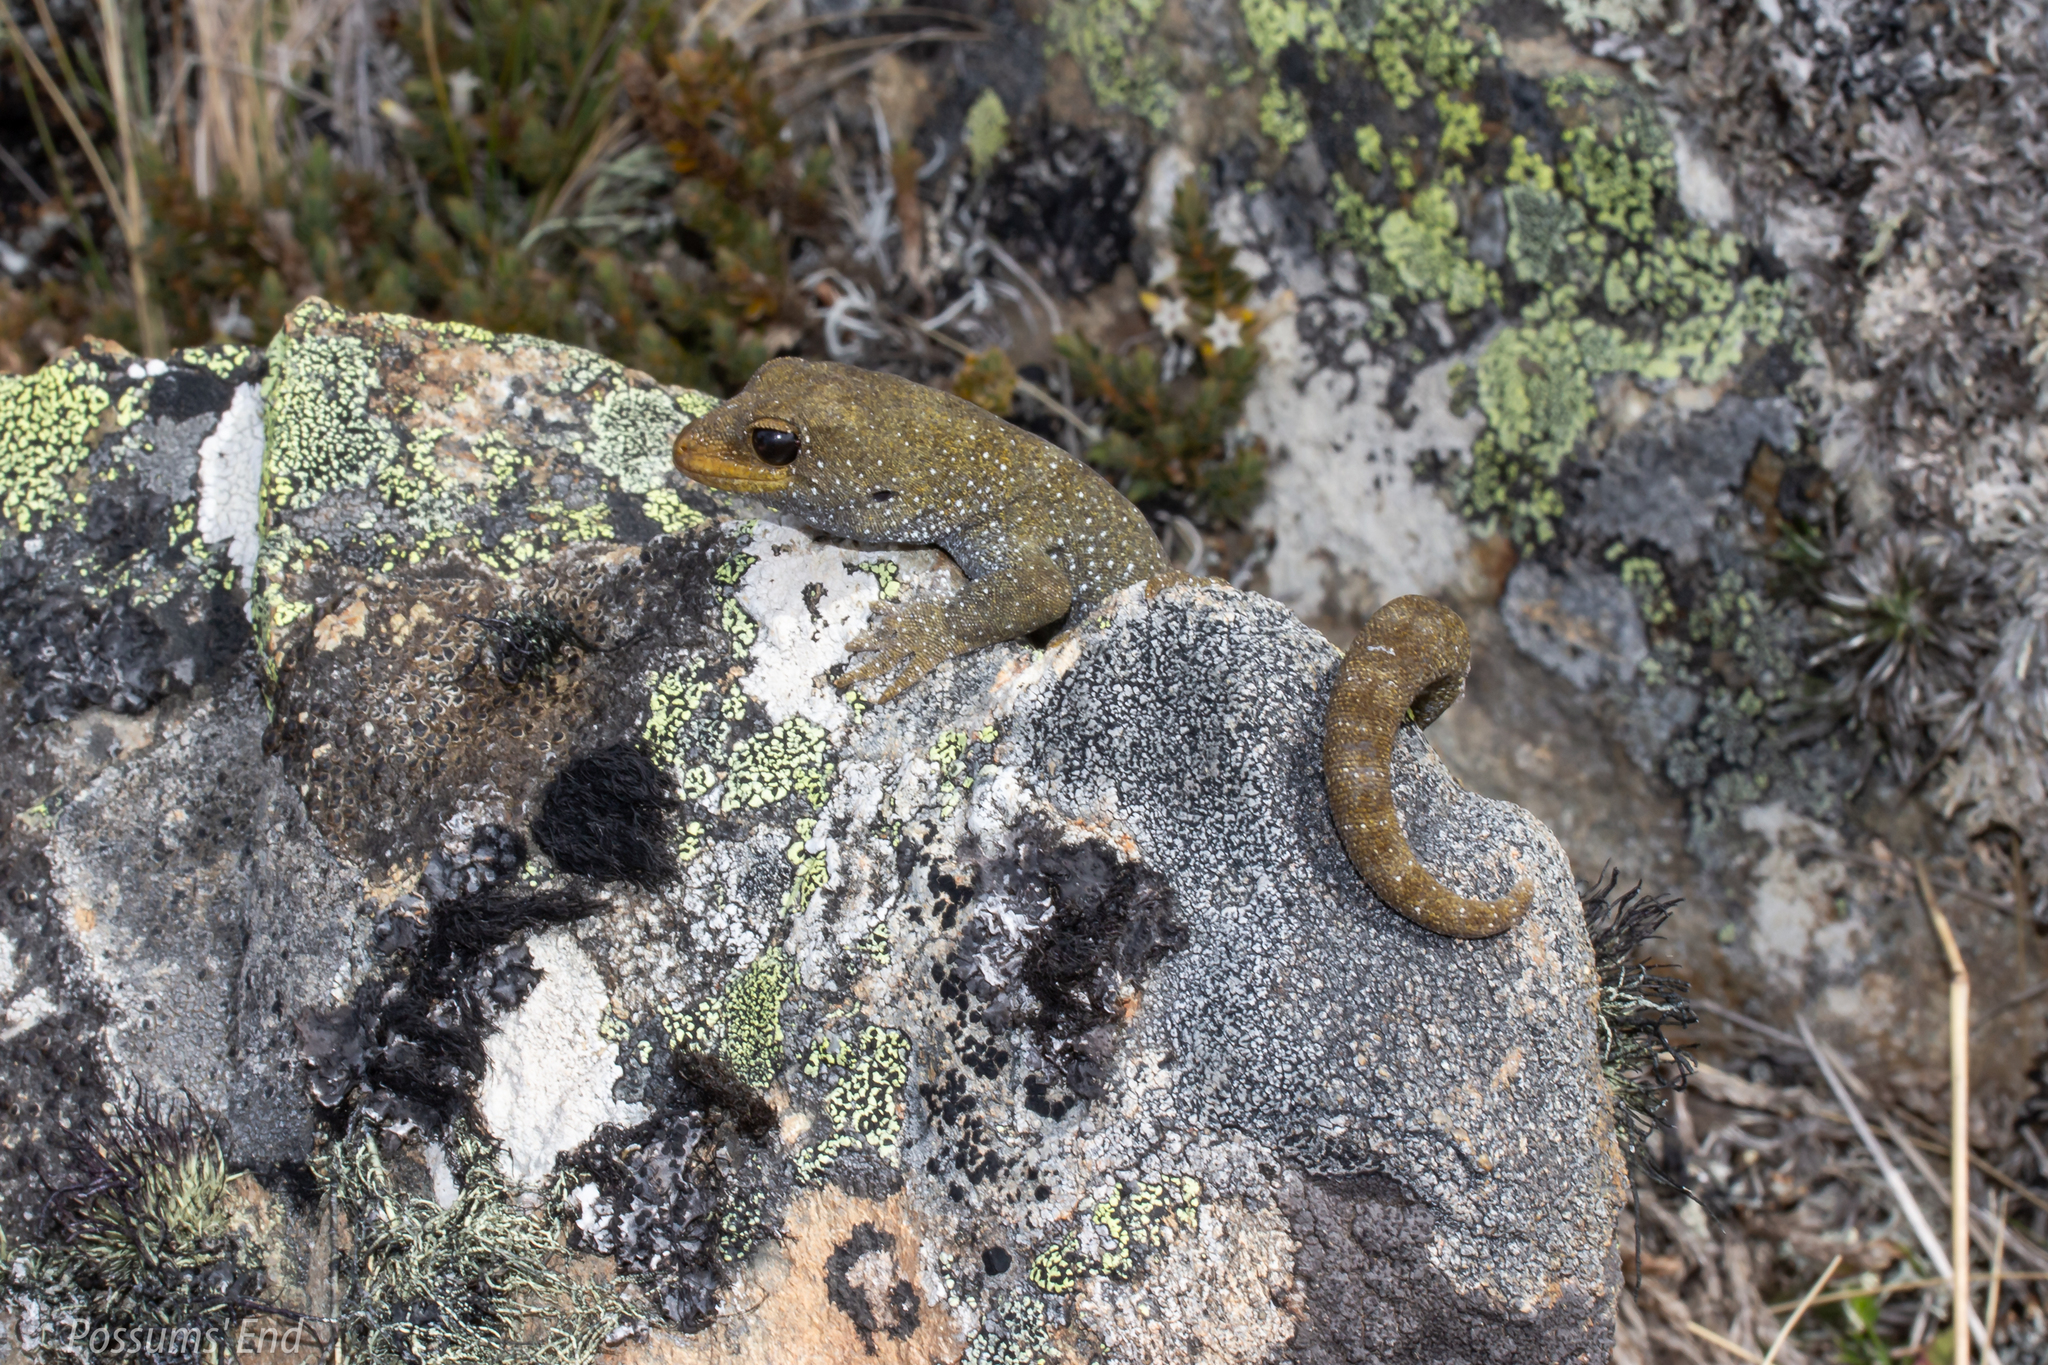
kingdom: Animalia
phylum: Chordata
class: Squamata
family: Diplodactylidae
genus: Mokopirirakau
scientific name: Mokopirirakau galaxias
